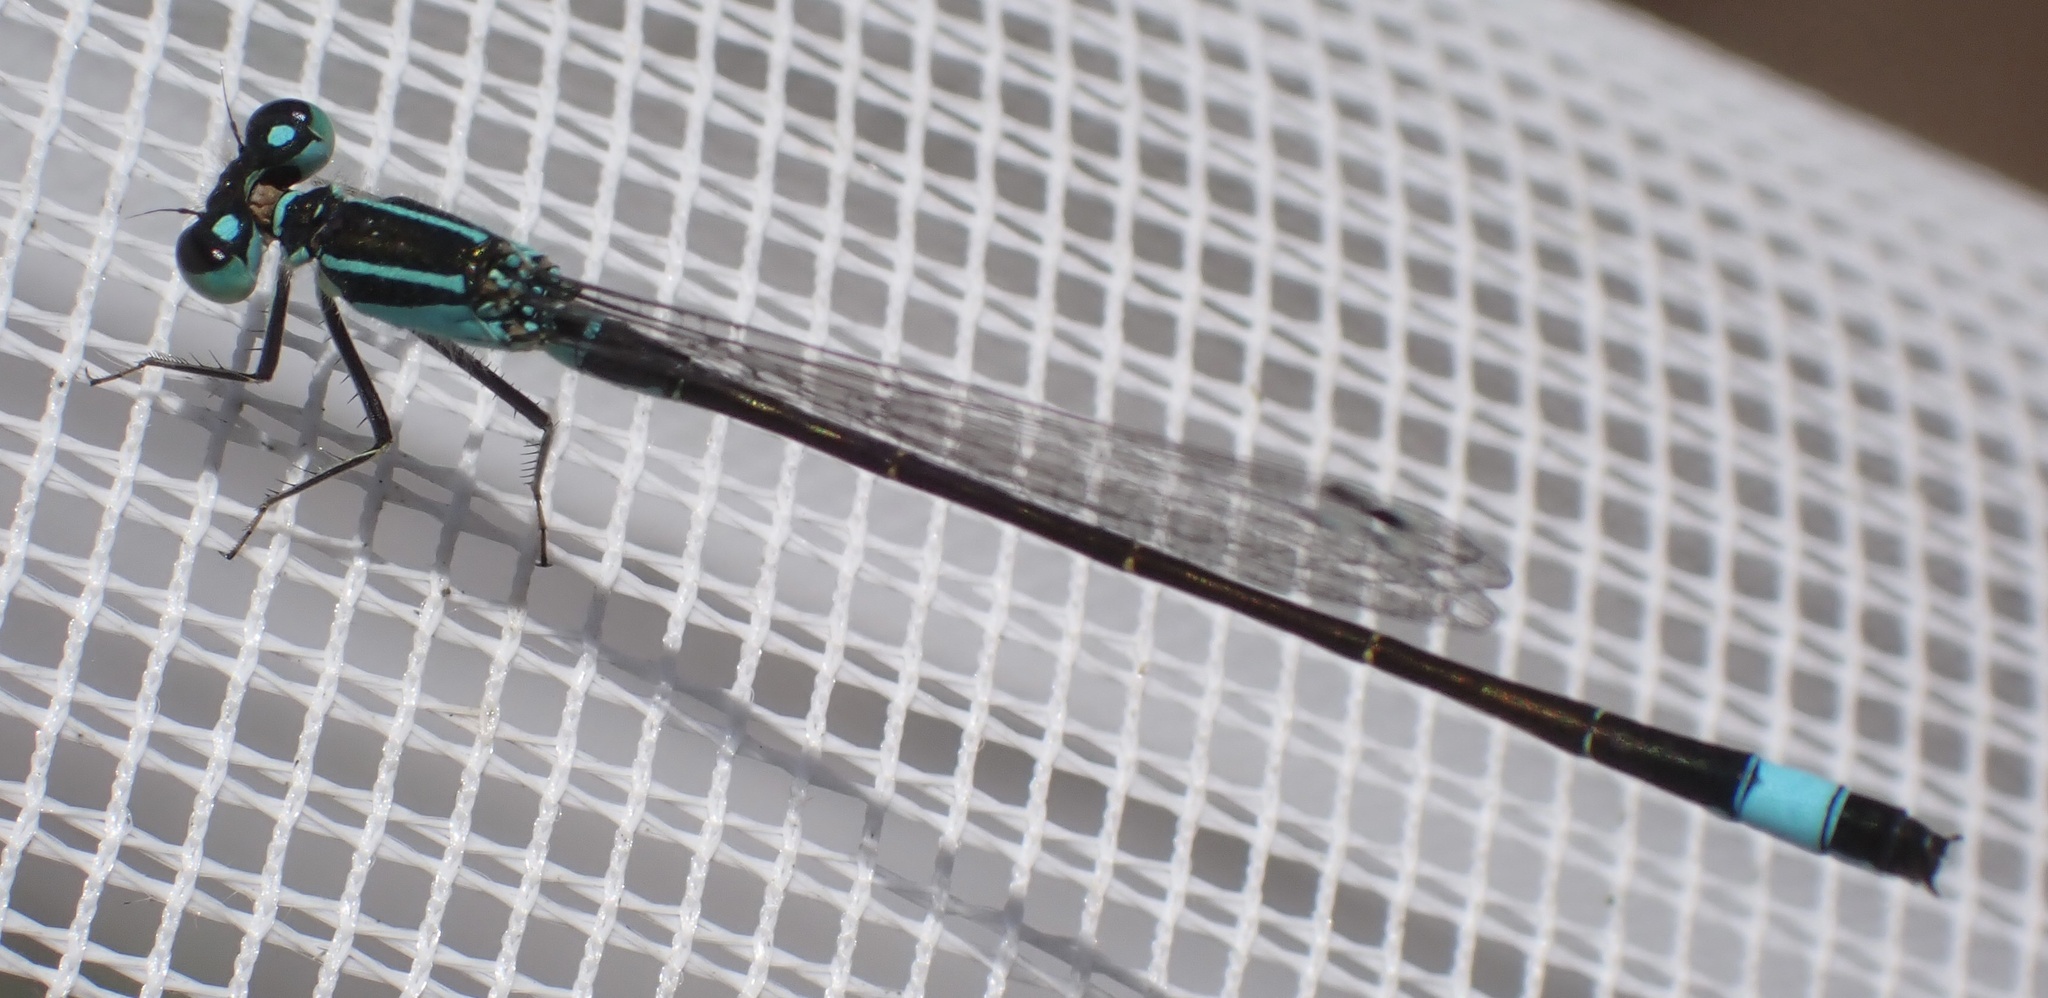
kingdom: Animalia
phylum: Arthropoda
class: Insecta
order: Odonata
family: Coenagrionidae
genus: Ischnura
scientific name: Ischnura elegans
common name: Blue-tailed damselfly
